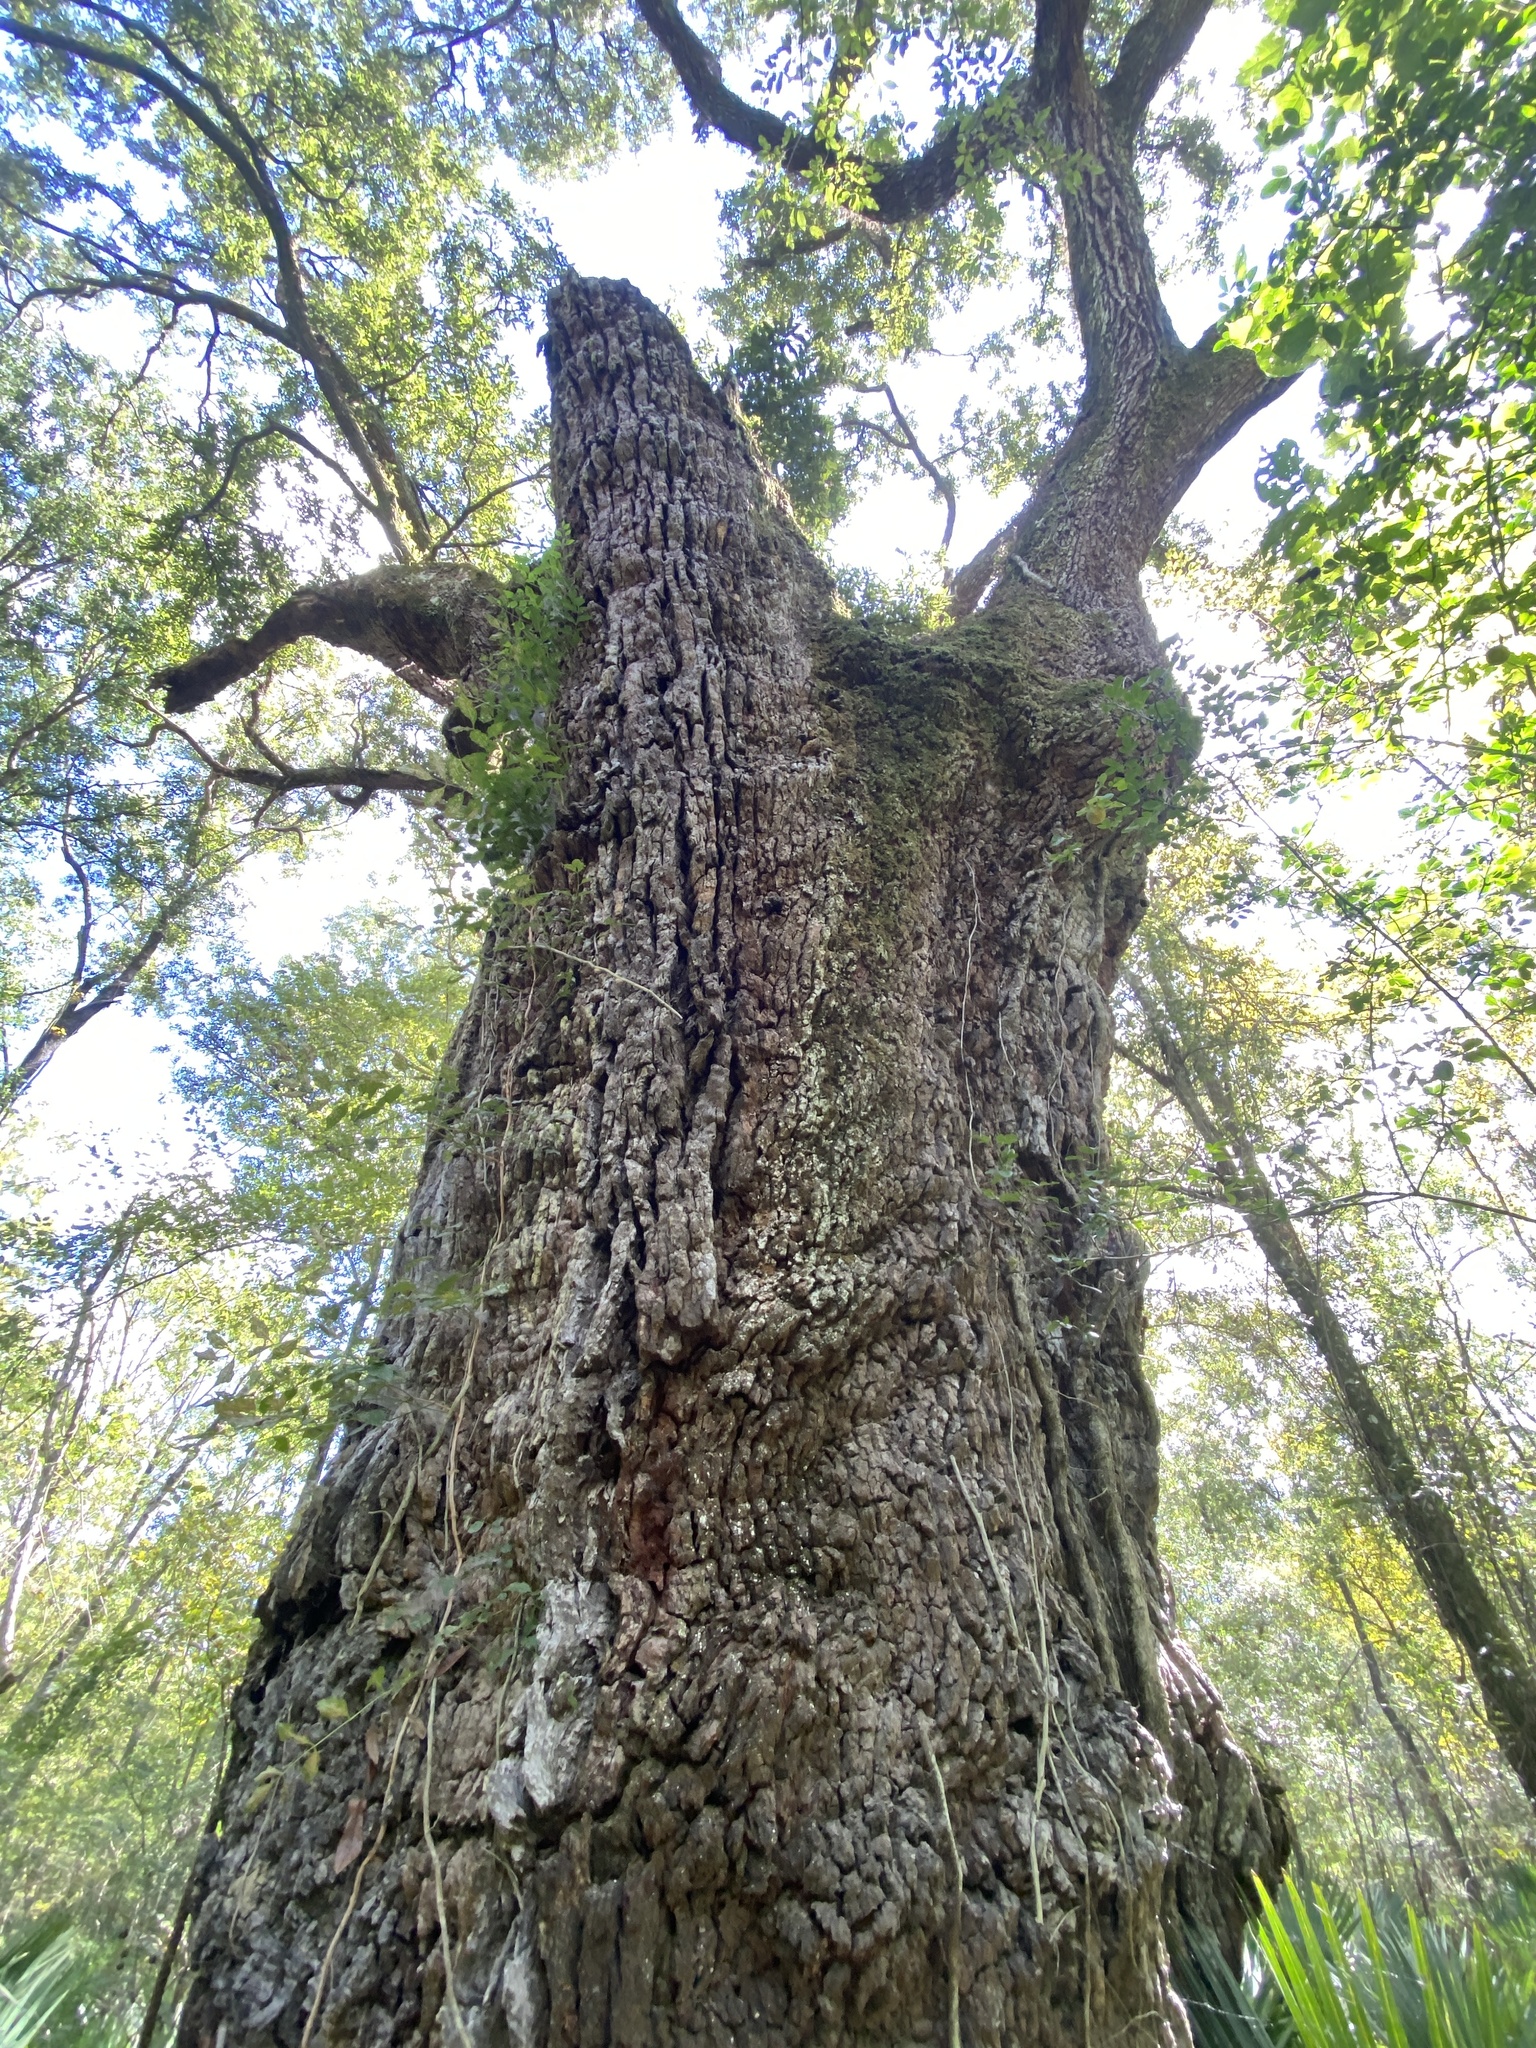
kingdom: Plantae
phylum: Tracheophyta
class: Magnoliopsida
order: Fagales
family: Fagaceae
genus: Quercus
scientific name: Quercus virginiana
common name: Southern live oak
